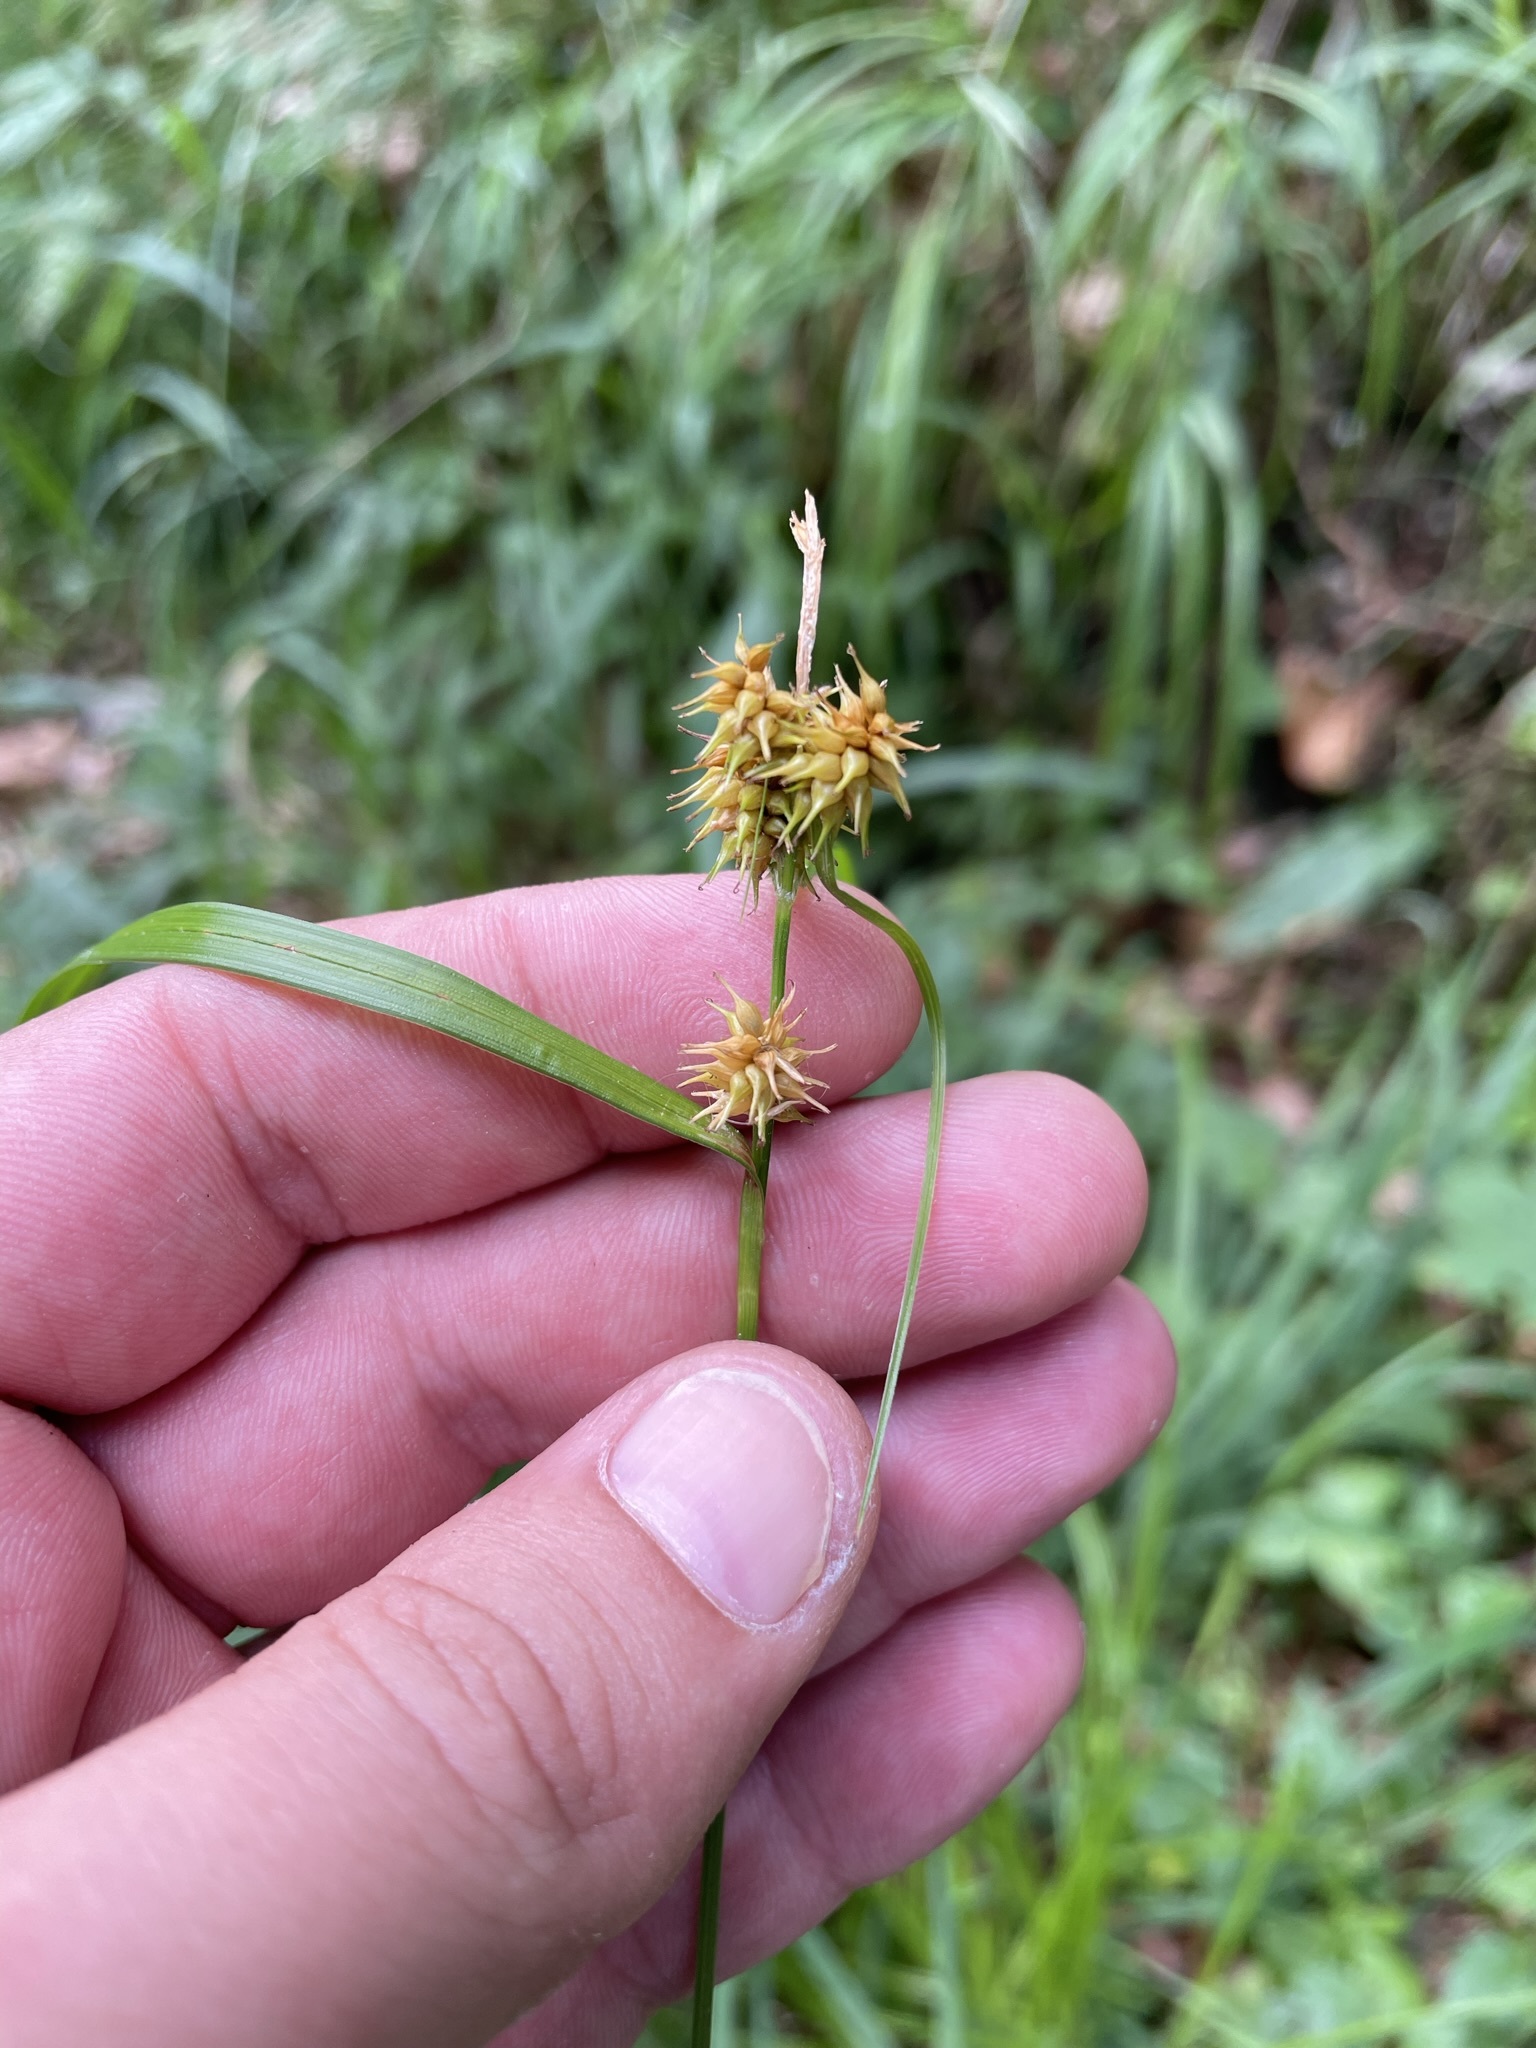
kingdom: Plantae
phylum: Tracheophyta
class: Liliopsida
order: Poales
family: Cyperaceae
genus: Carex
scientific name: Carex flava
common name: Large yellow-sedge
